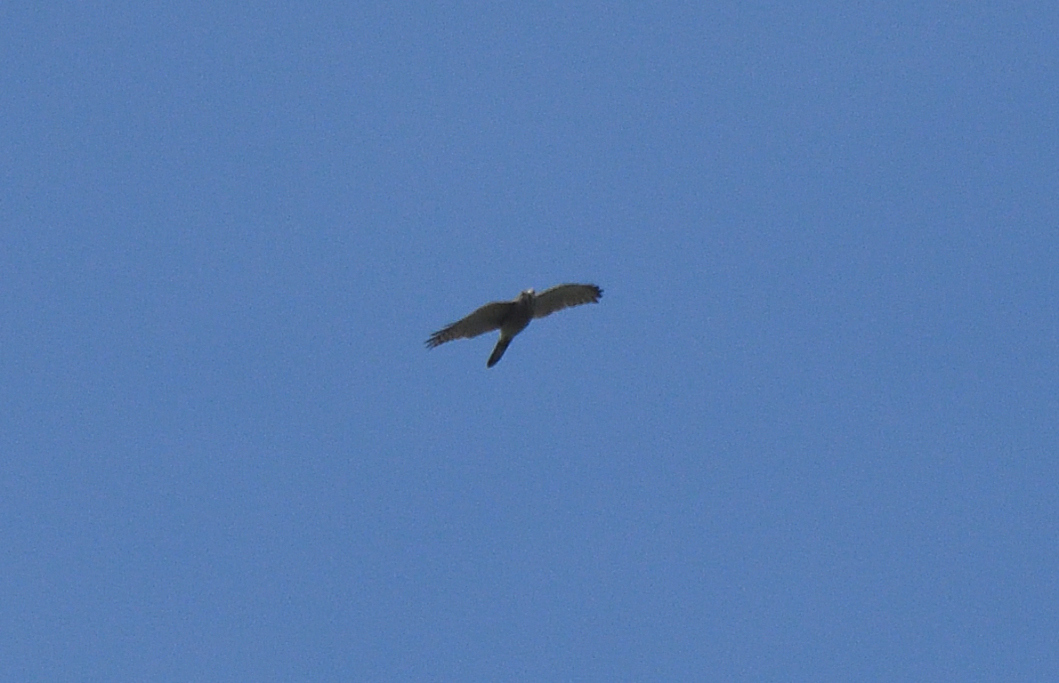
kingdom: Animalia
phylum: Chordata
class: Aves
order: Accipitriformes
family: Accipitridae
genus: Accipiter
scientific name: Accipiter badius
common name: Shikra
